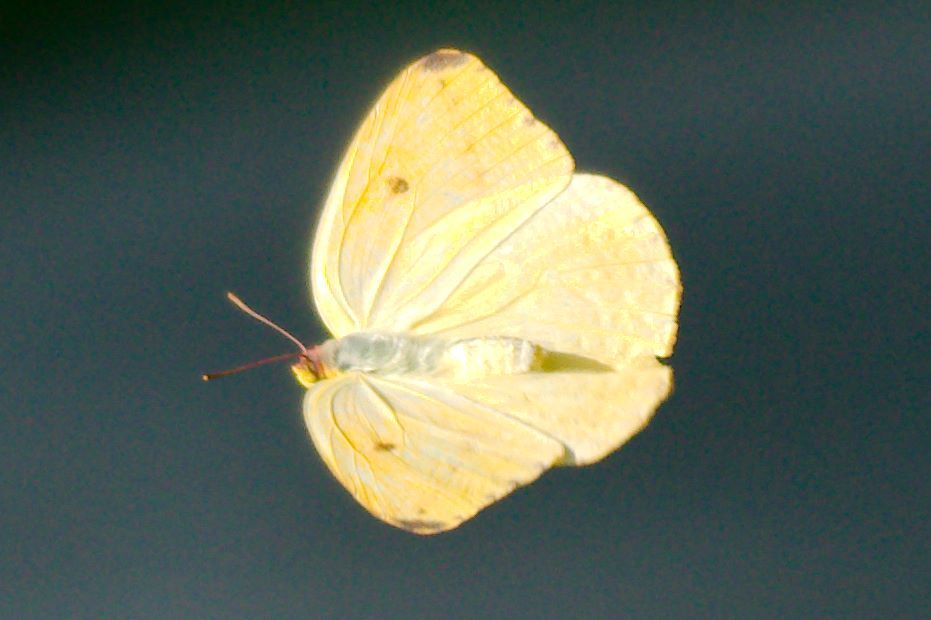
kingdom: Animalia
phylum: Arthropoda
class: Insecta
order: Lepidoptera
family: Pieridae
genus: Phoebis
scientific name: Phoebis philea
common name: Orange-barred giant sulphur
